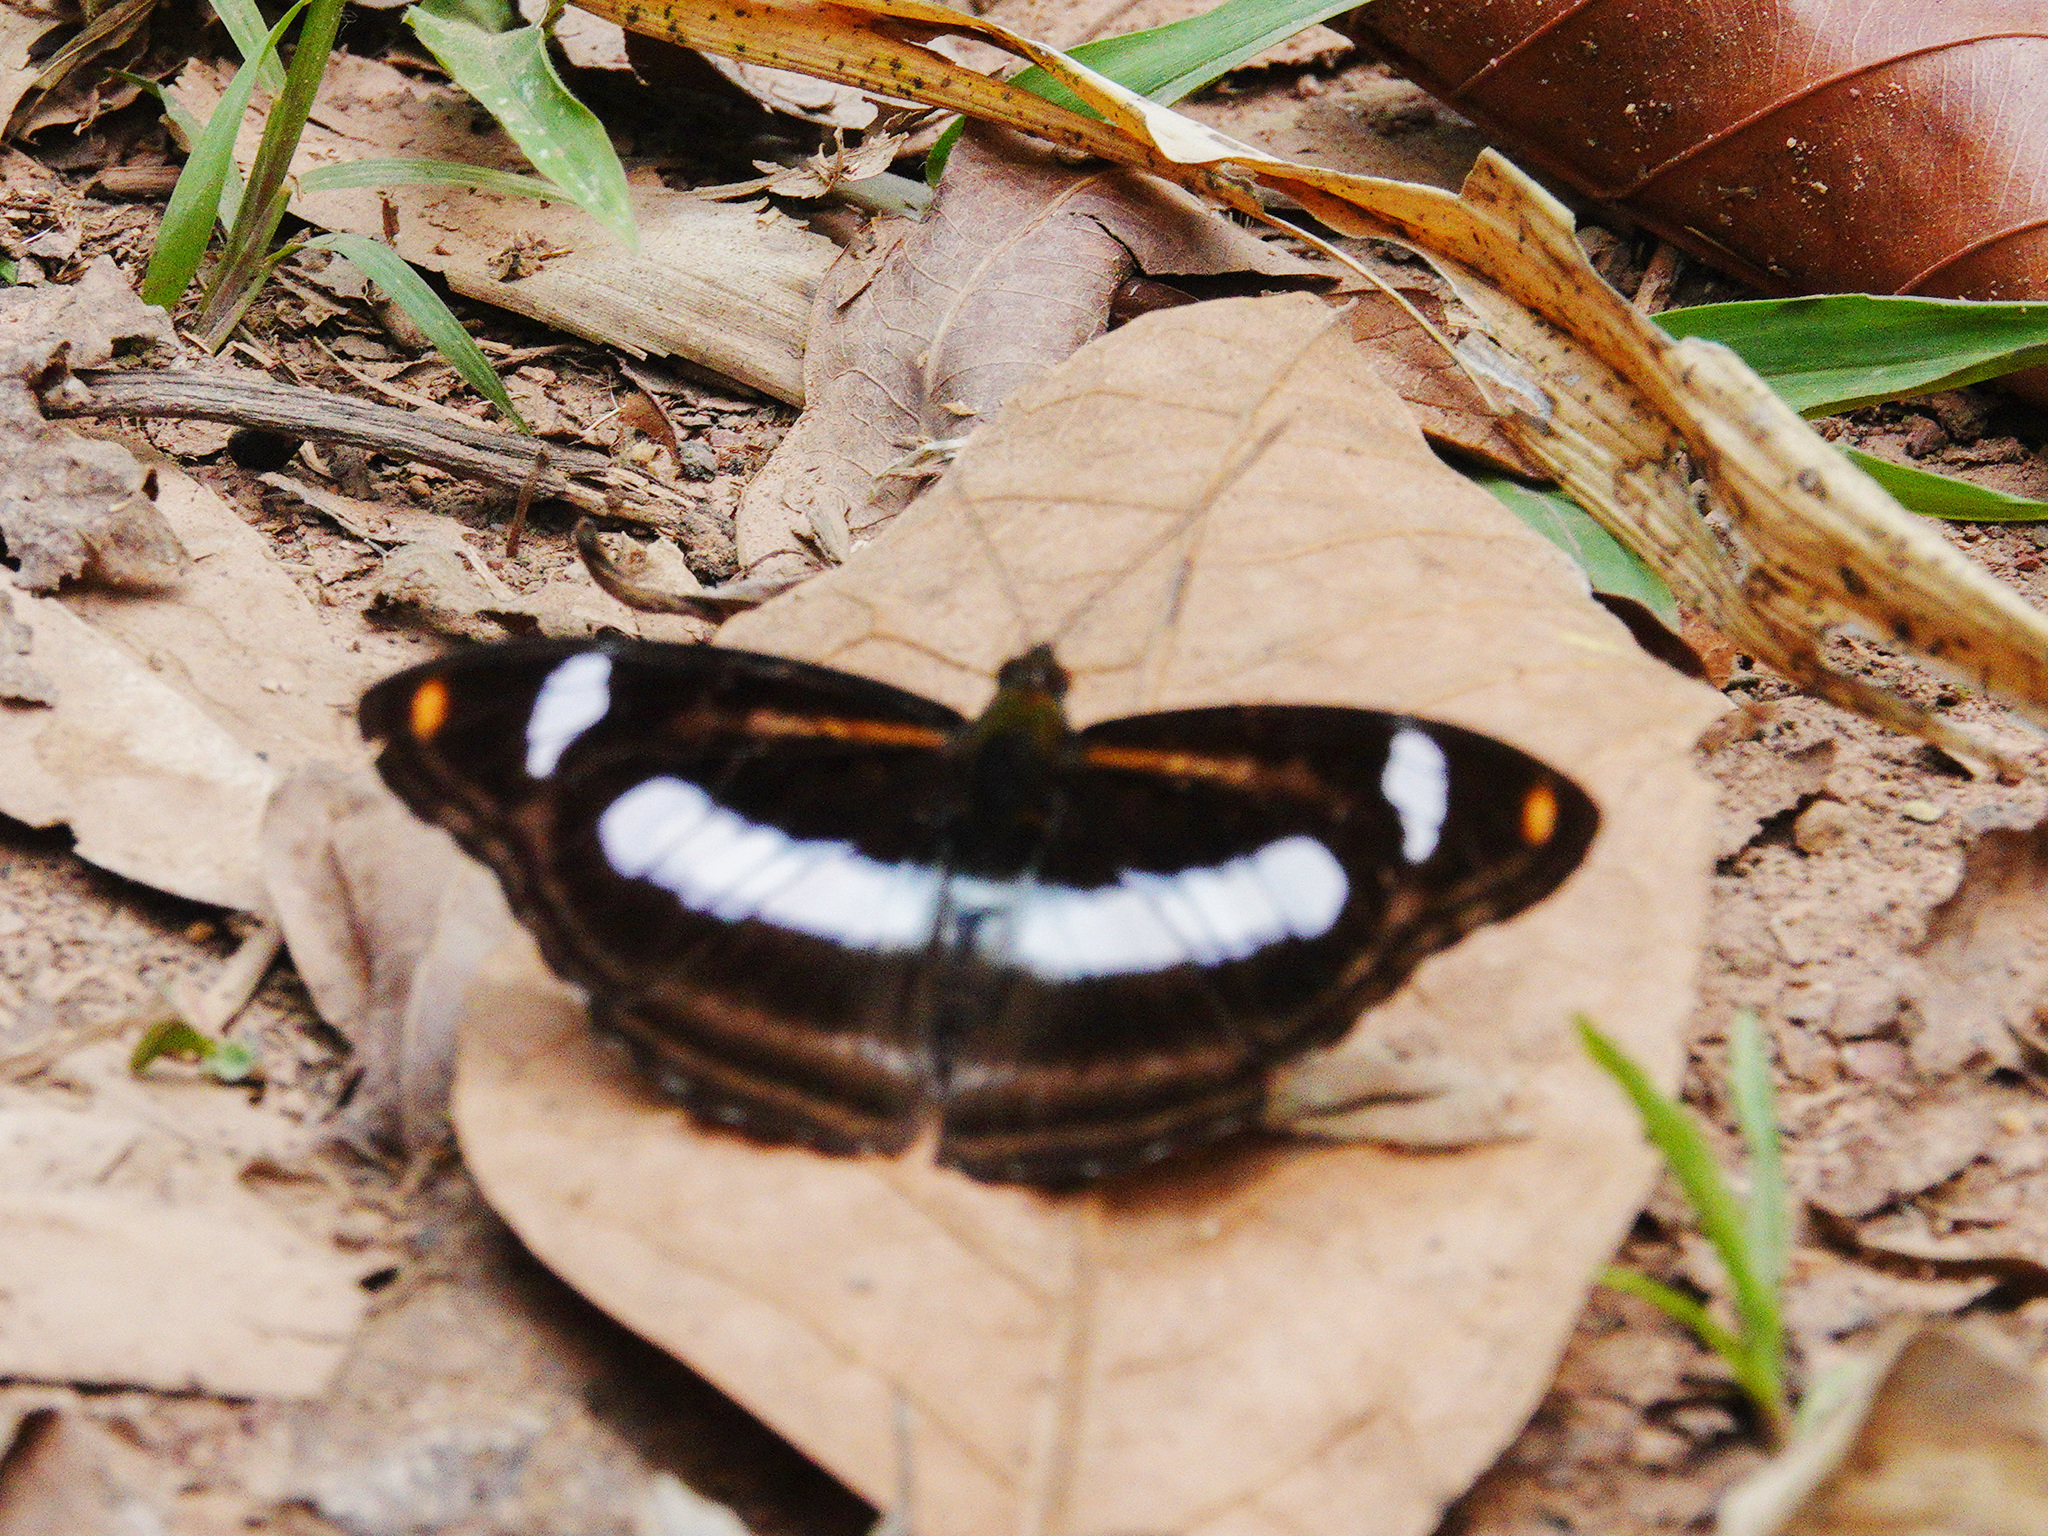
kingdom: Animalia
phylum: Arthropoda
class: Insecta
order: Lepidoptera
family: Nymphalidae
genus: Pantoporia
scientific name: Pantoporia cama
